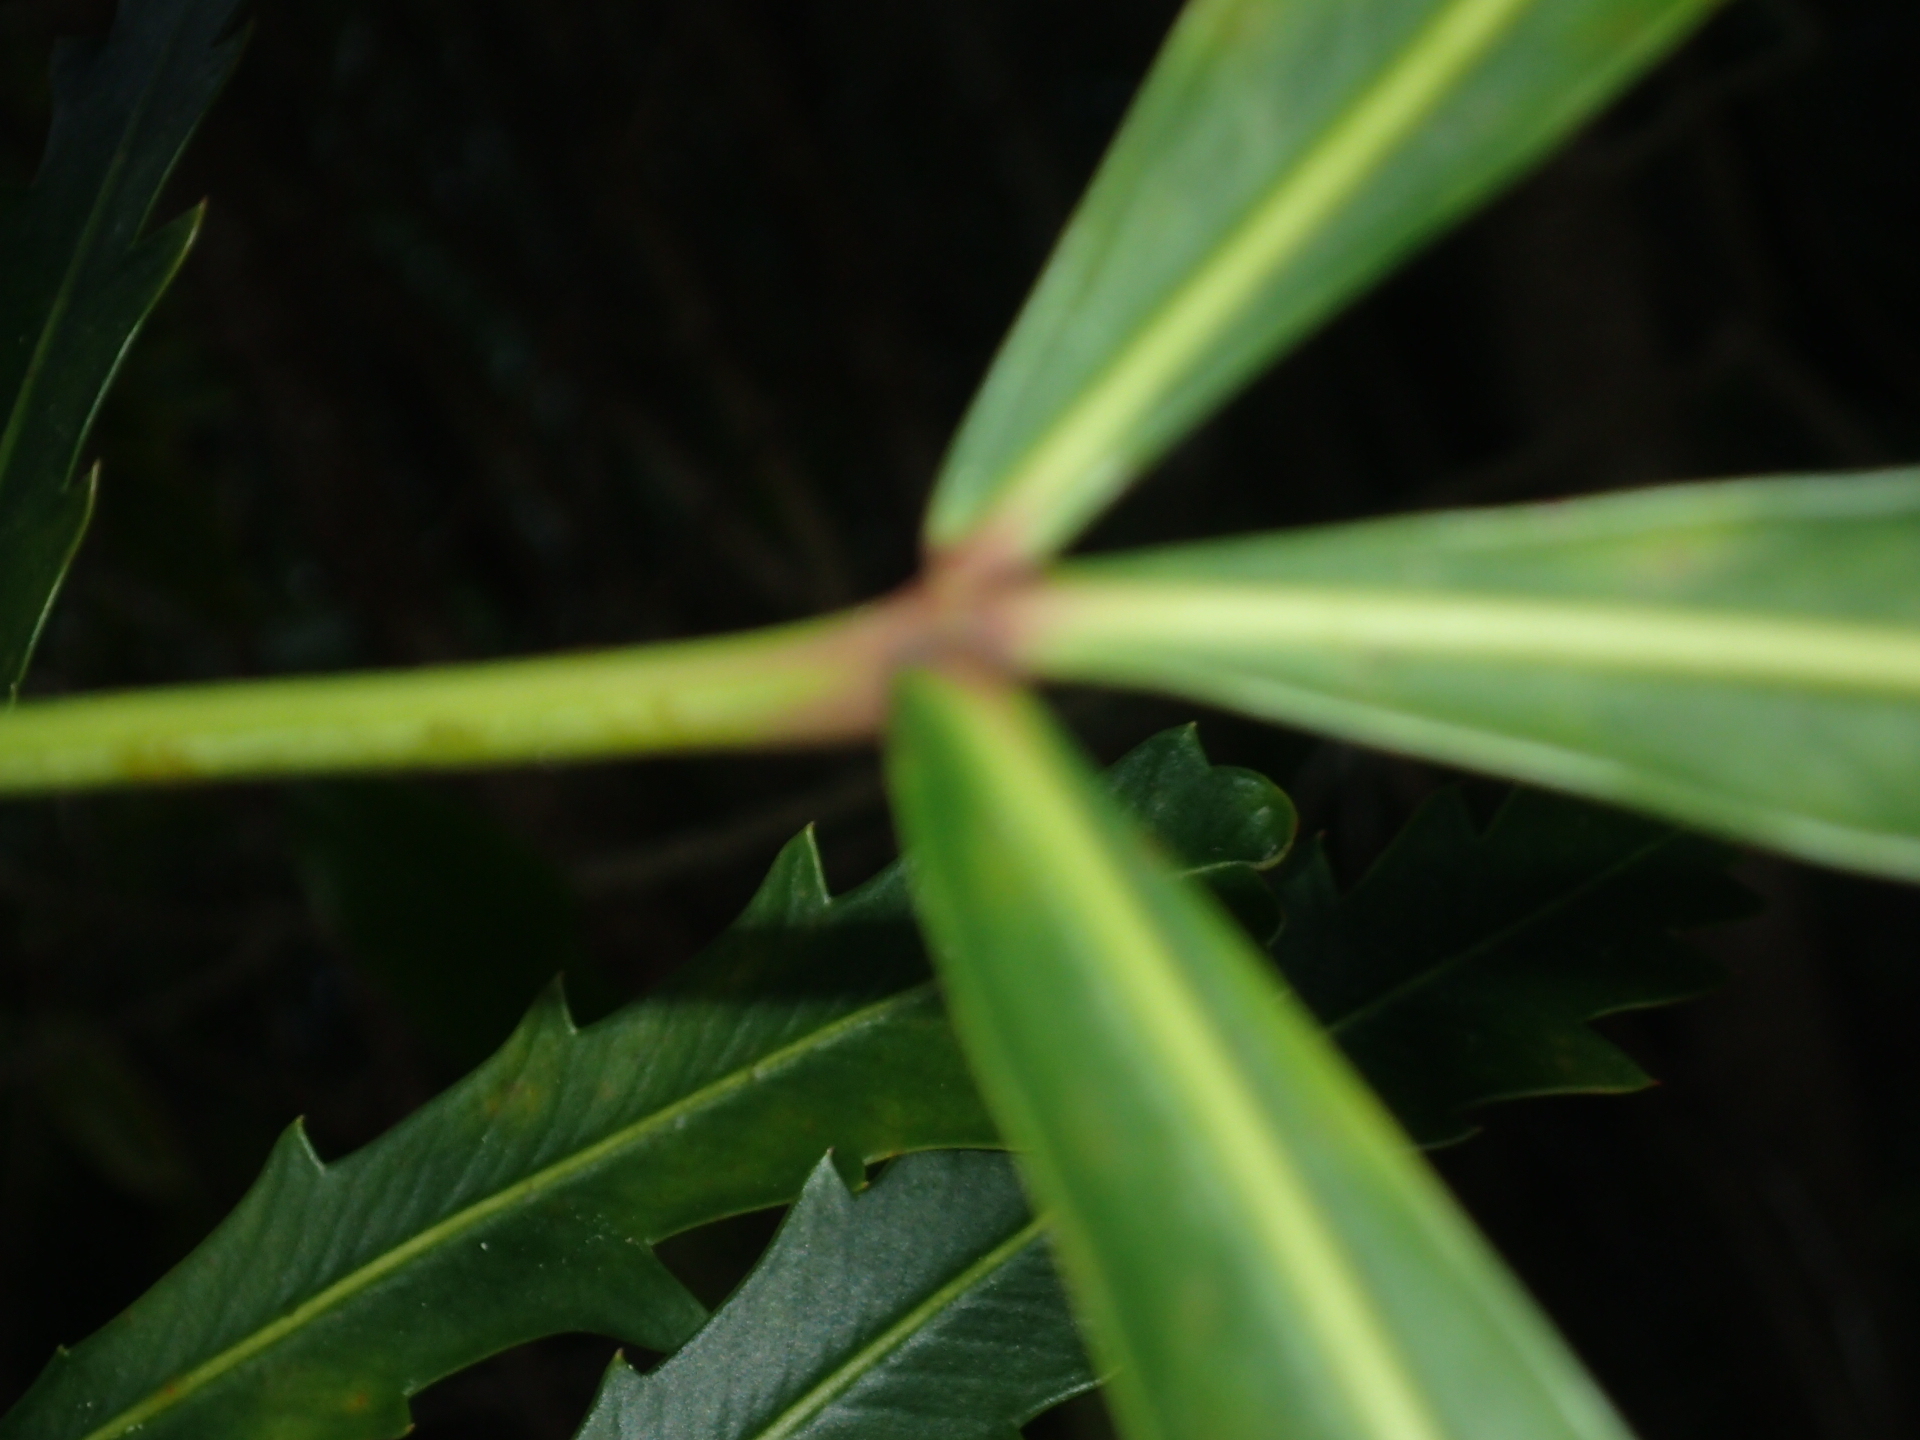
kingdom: Plantae
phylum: Tracheophyta
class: Magnoliopsida
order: Apiales
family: Araliaceae
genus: Pseudopanax
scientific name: Pseudopanax
